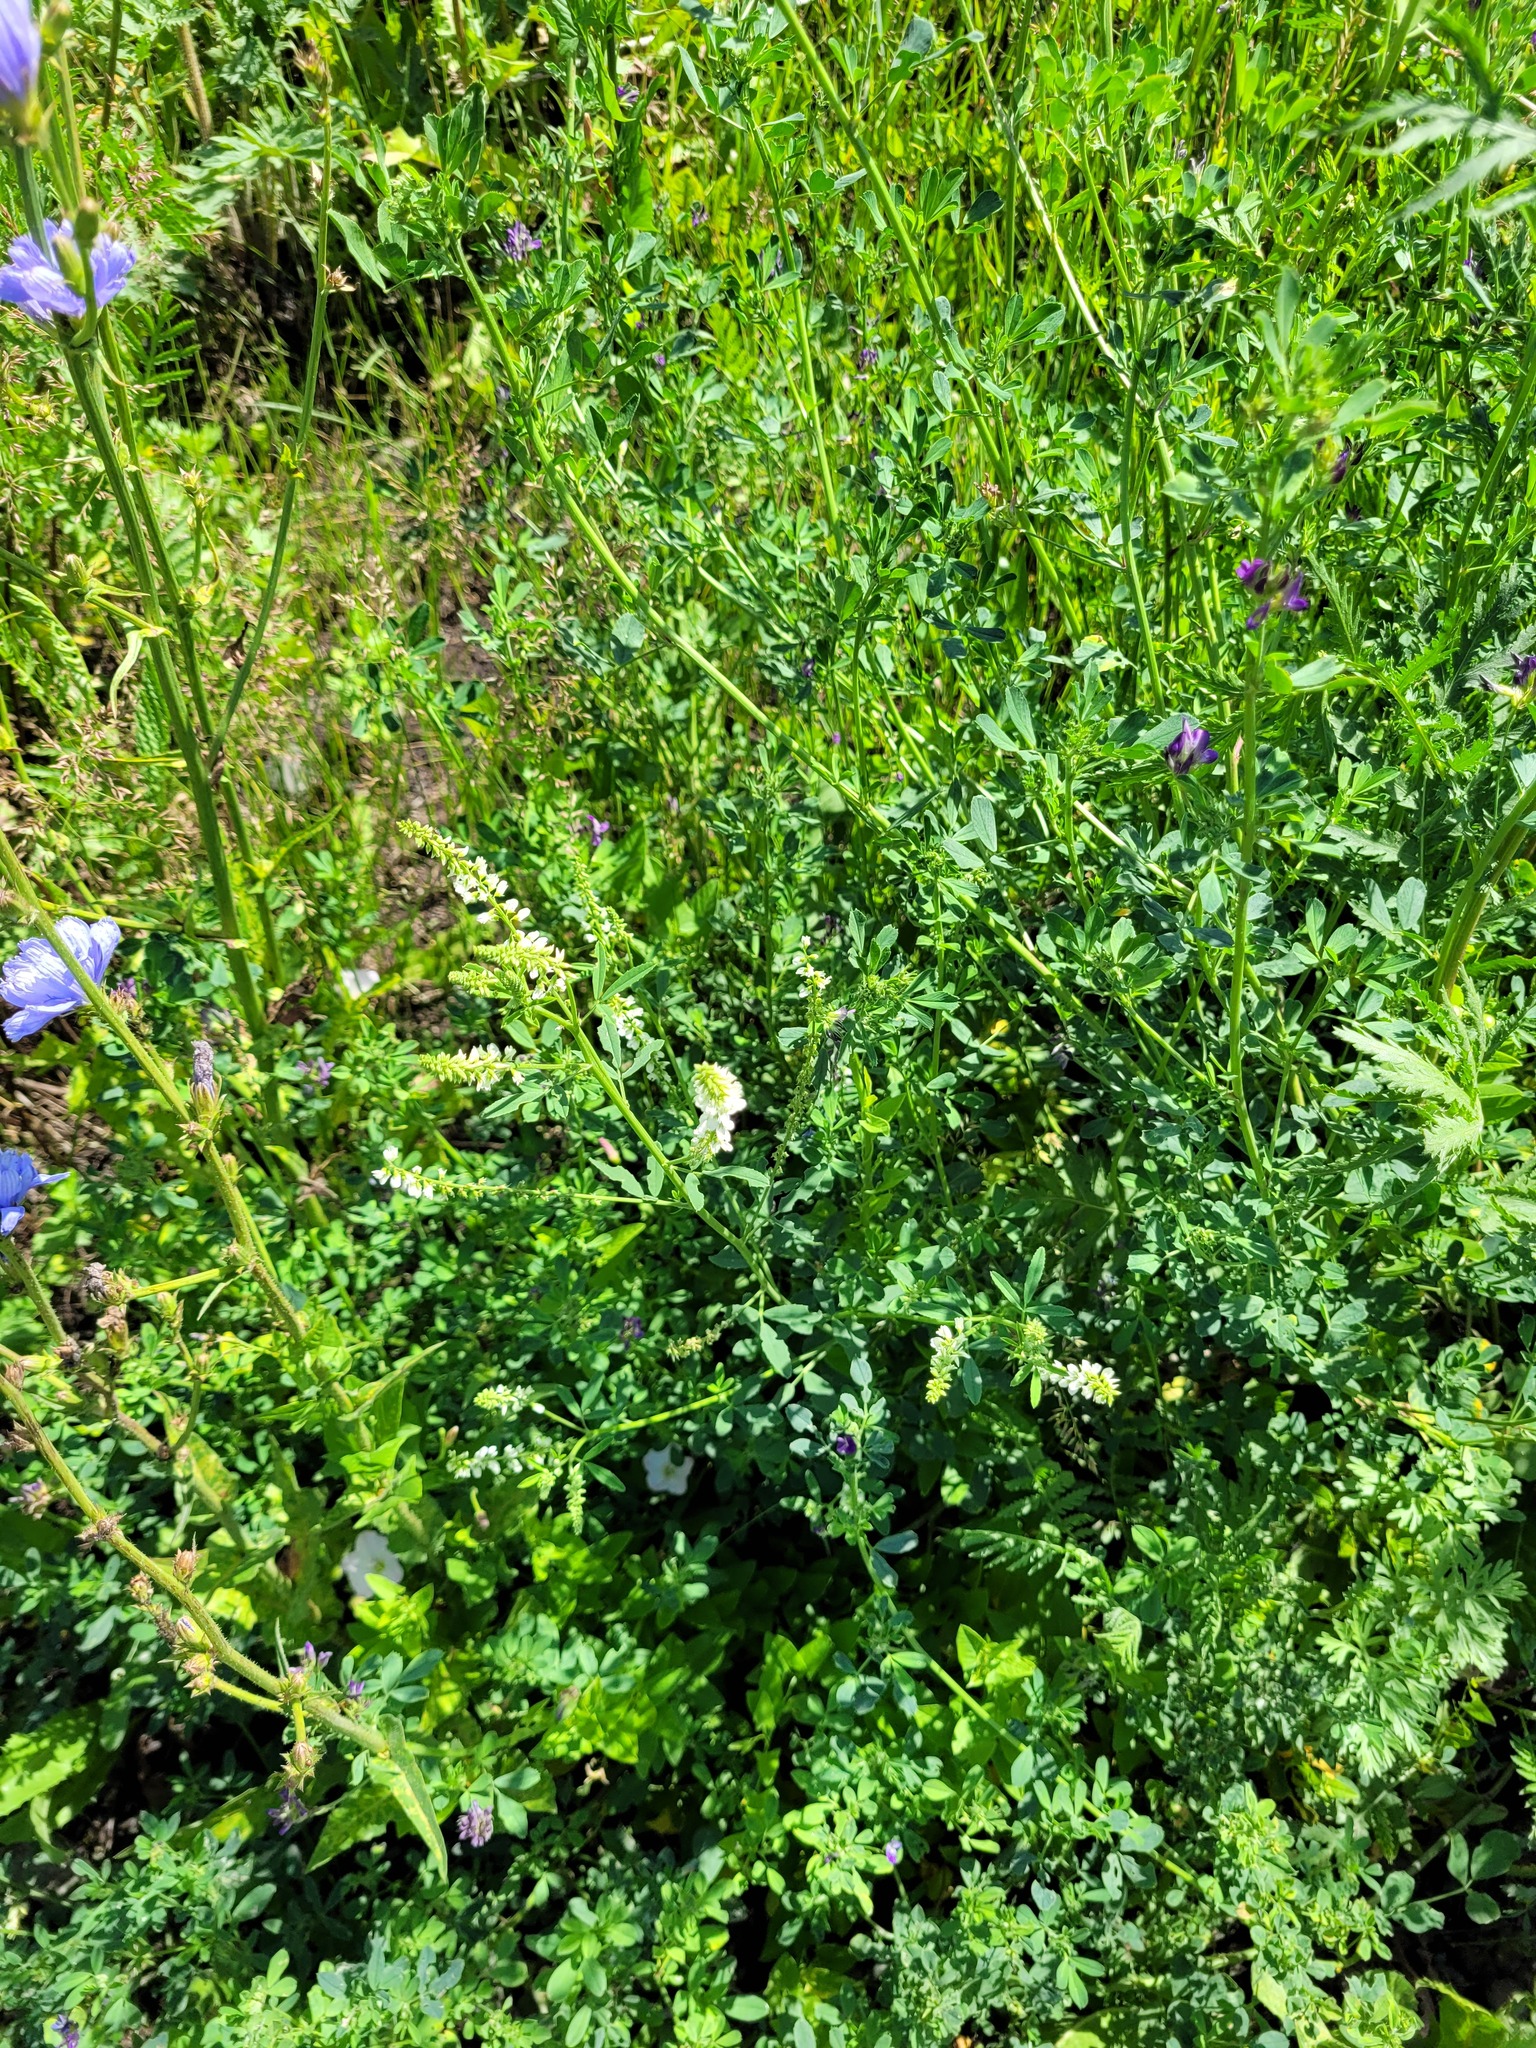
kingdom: Plantae
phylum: Tracheophyta
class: Magnoliopsida
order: Fabales
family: Fabaceae
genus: Melilotus
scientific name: Melilotus albus
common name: White melilot
